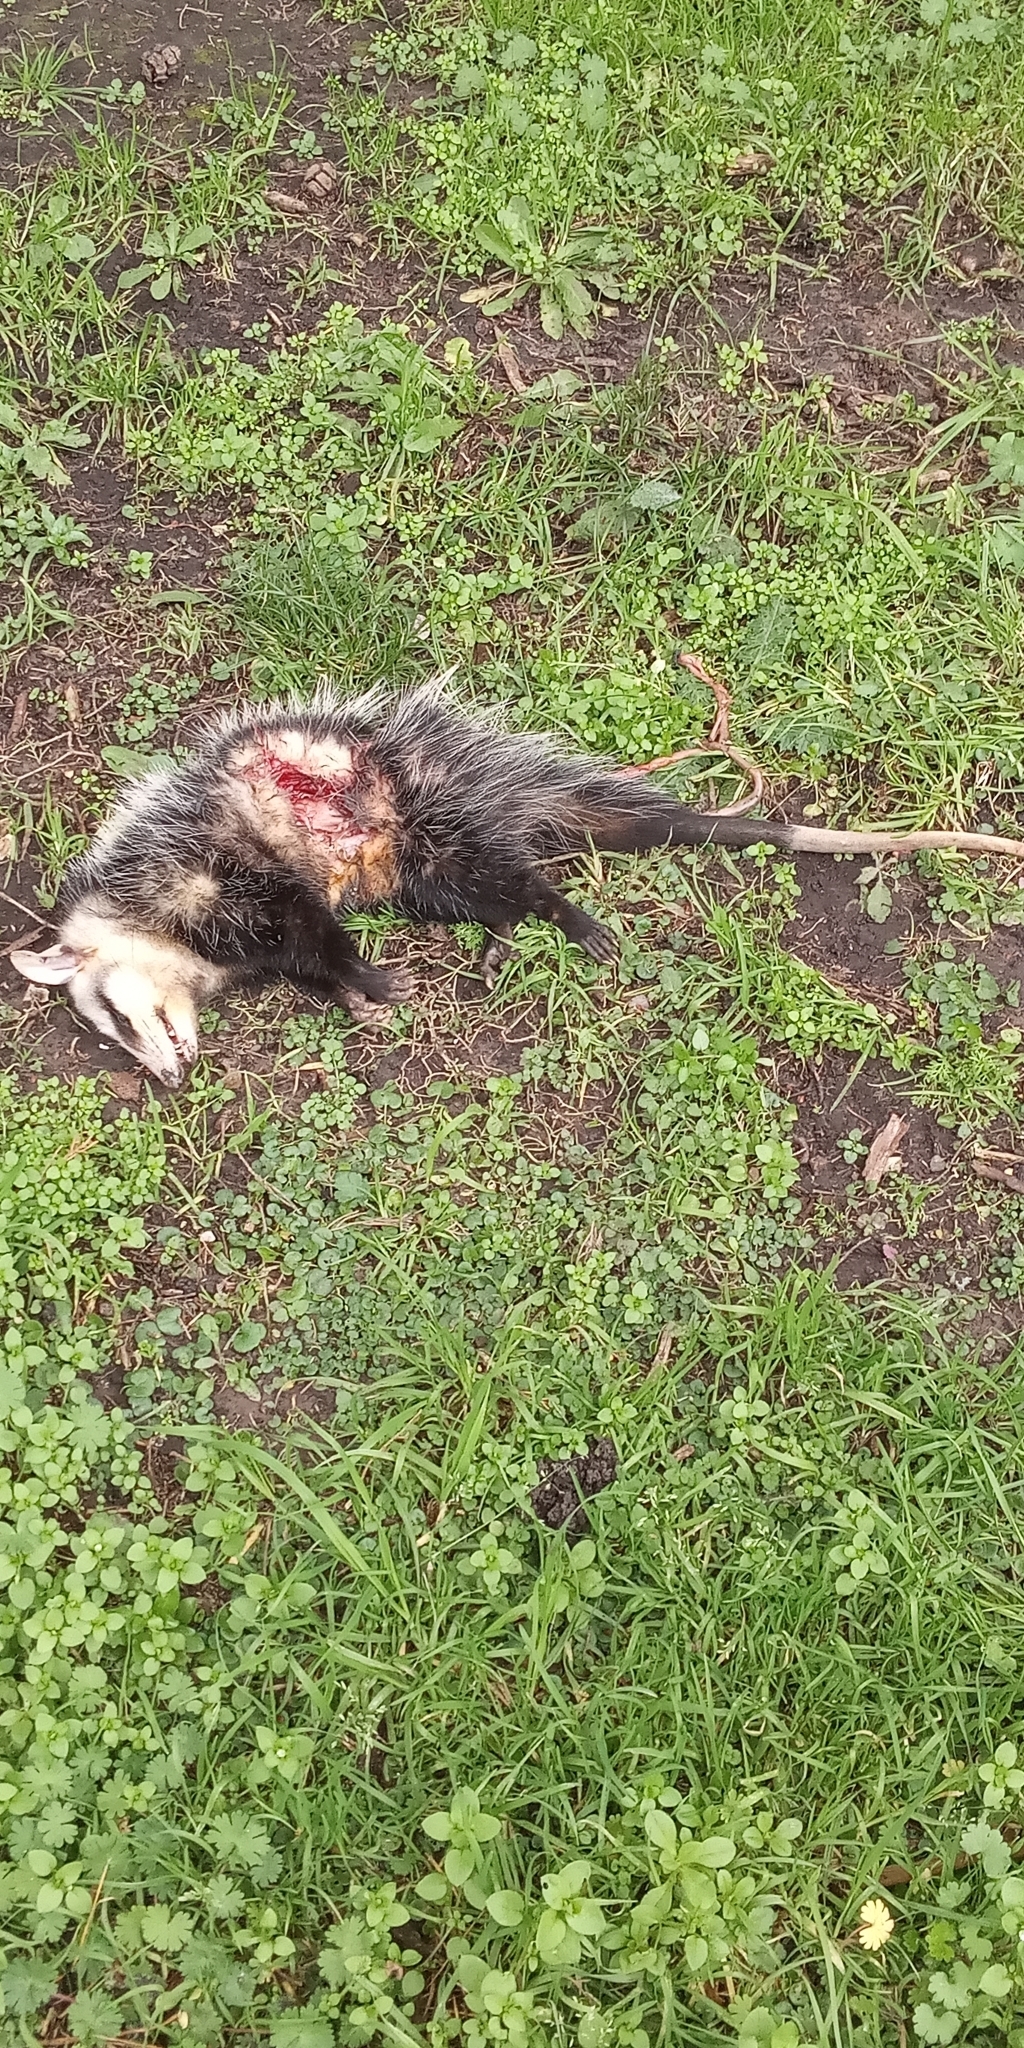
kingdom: Animalia
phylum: Chordata
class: Mammalia
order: Didelphimorphia
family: Didelphidae
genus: Didelphis
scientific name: Didelphis albiventris
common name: White-eared opossum
